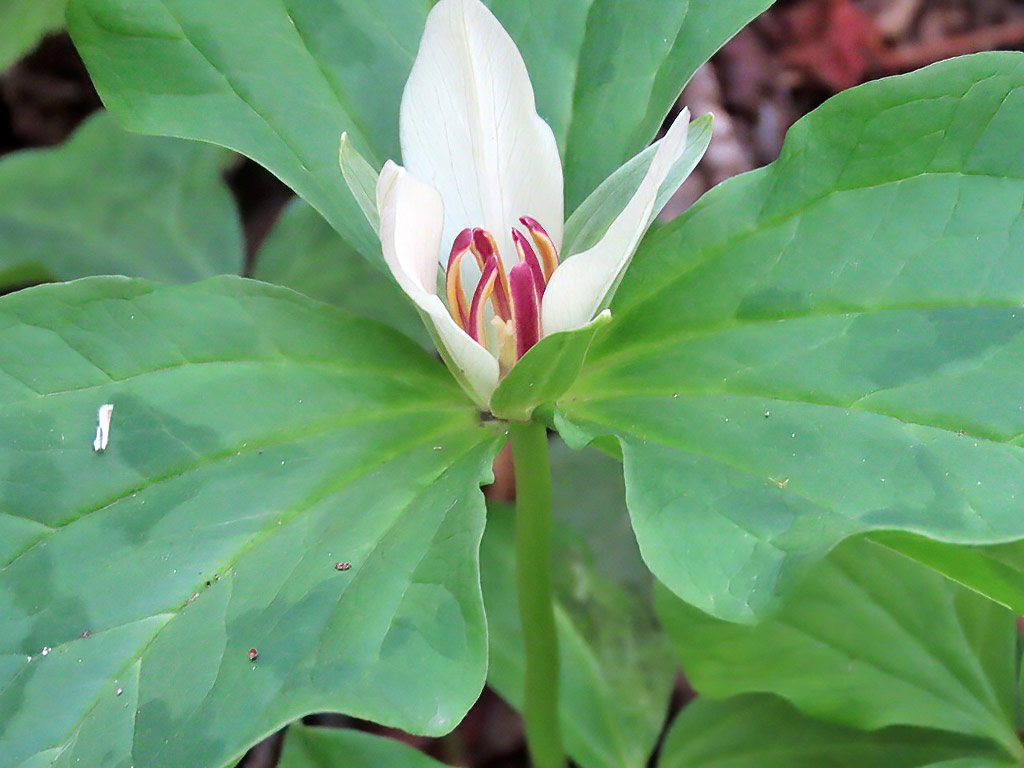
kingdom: Plantae
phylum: Tracheophyta
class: Liliopsida
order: Liliales
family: Melanthiaceae
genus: Trillium
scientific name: Trillium chloropetalum
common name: Giant trillium
